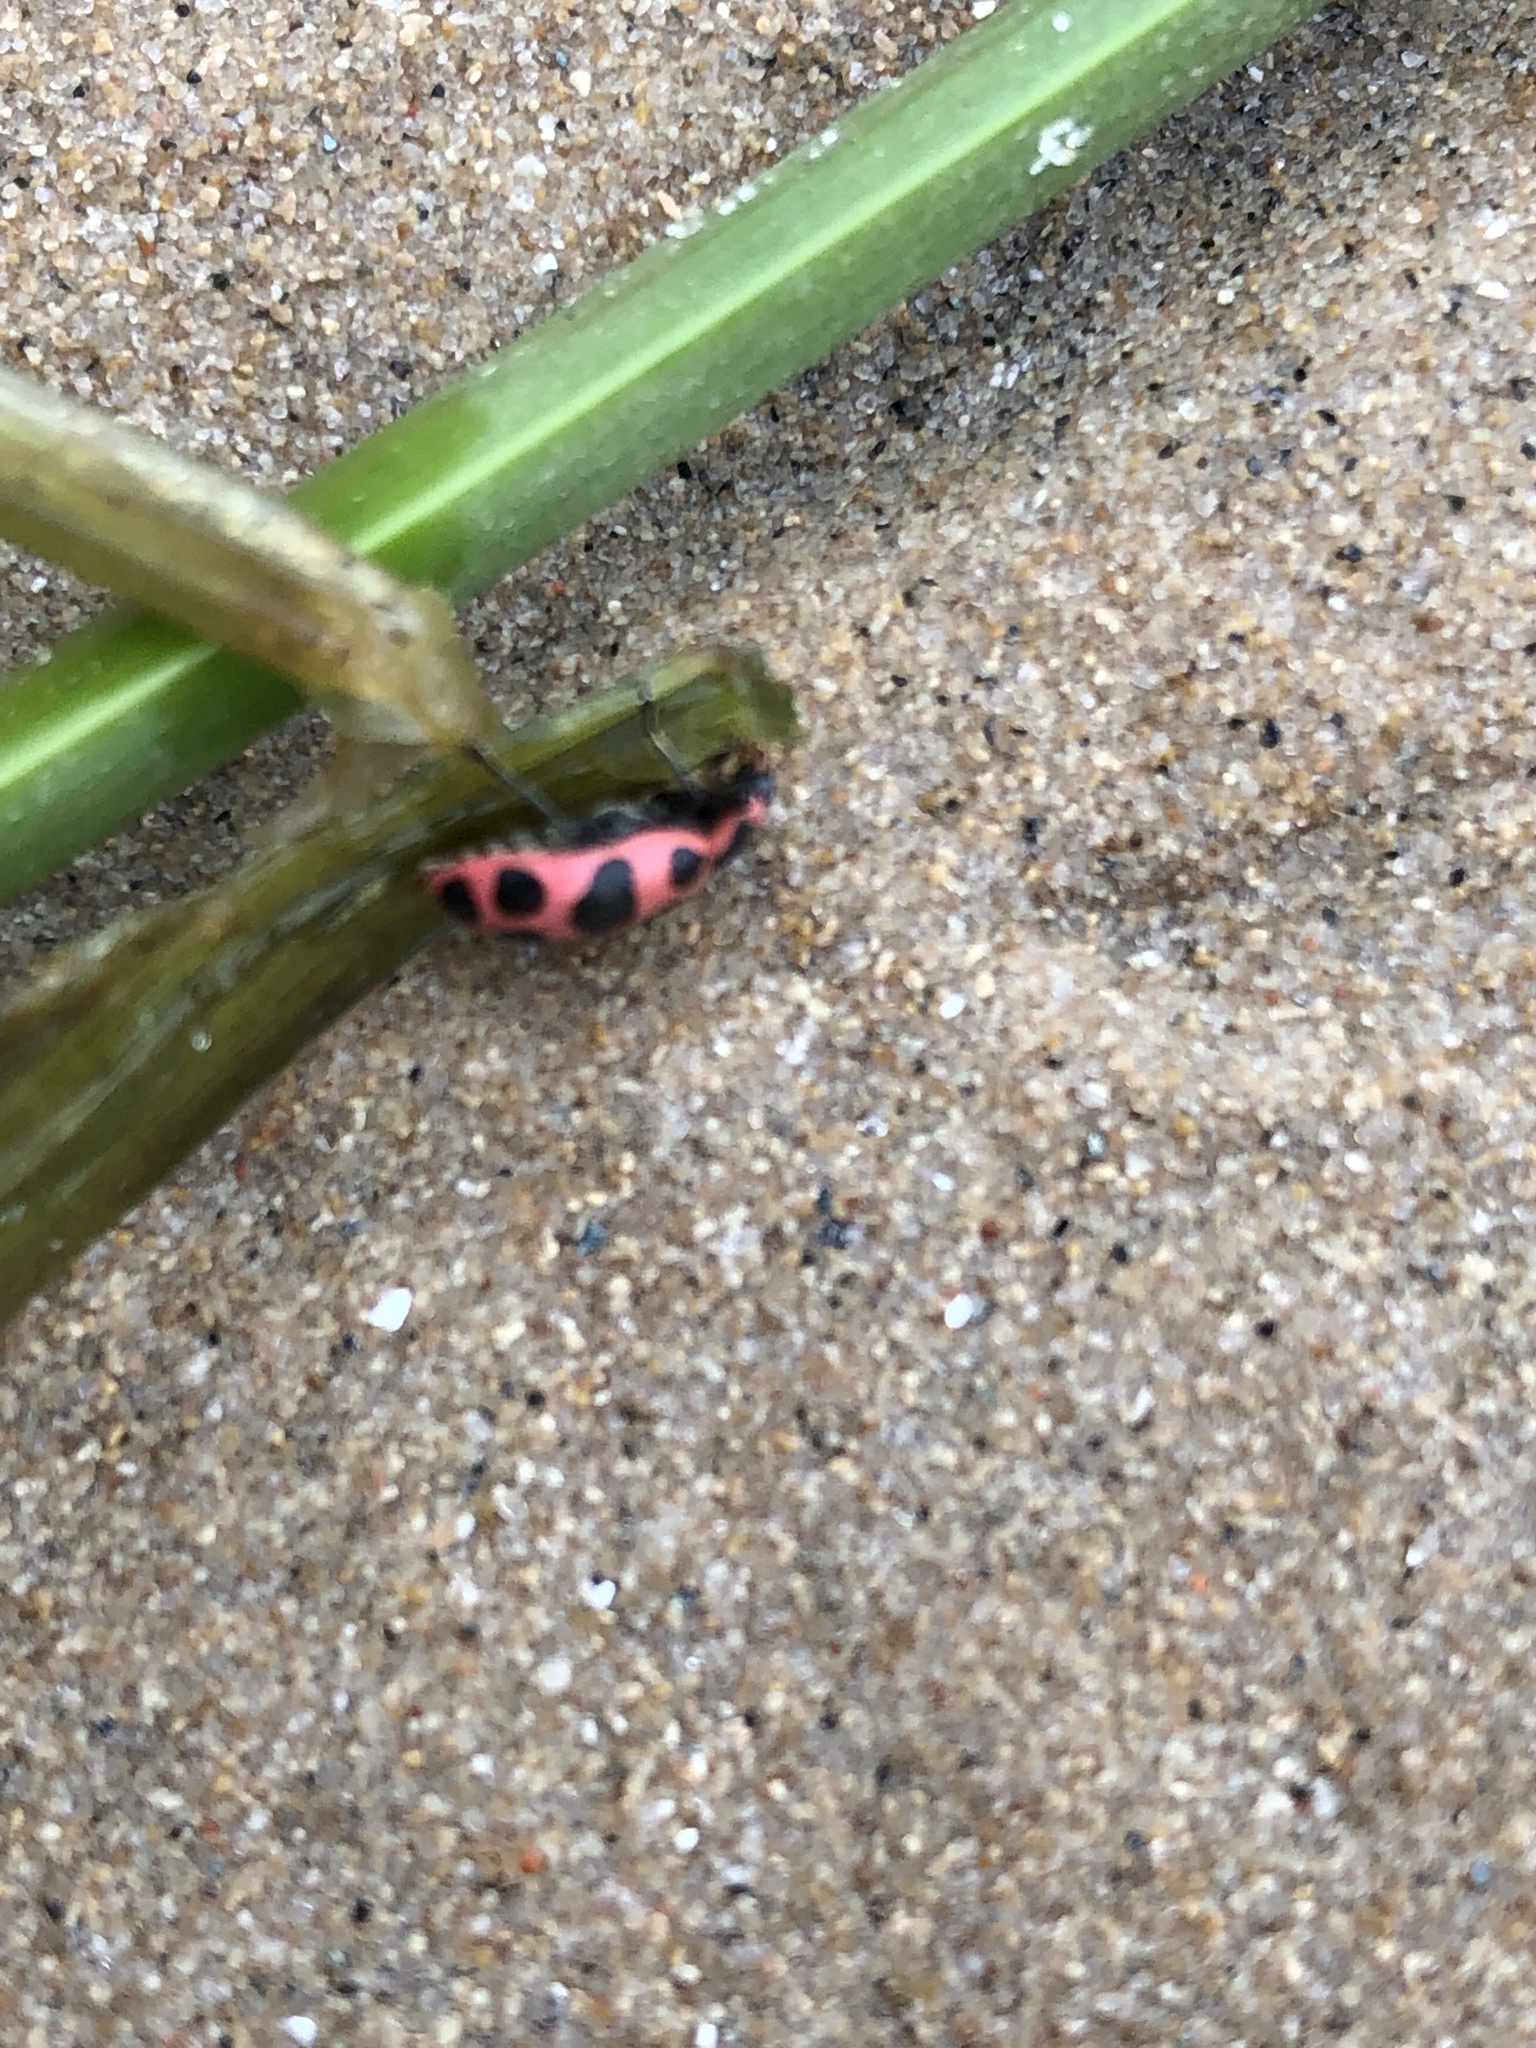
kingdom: Animalia
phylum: Arthropoda
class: Insecta
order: Coleoptera
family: Coccinellidae
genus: Coleomegilla
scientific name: Coleomegilla maculata
